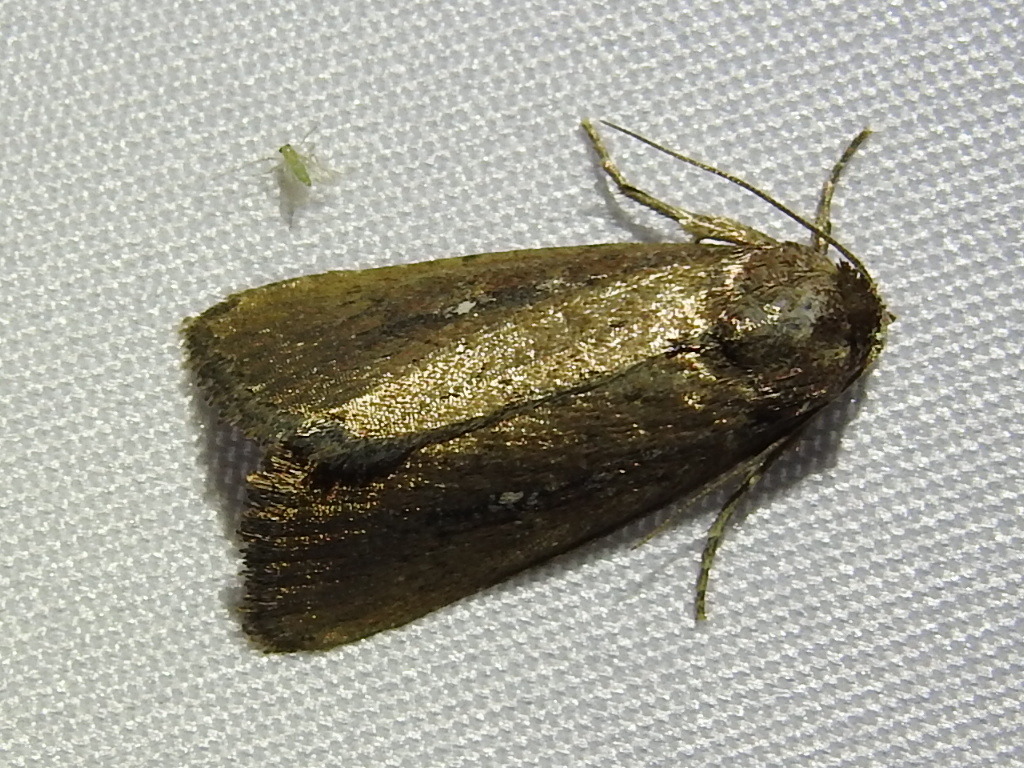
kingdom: Animalia
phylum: Arthropoda
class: Insecta
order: Lepidoptera
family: Noctuidae
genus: Condica
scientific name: Condica videns
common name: White-dotted groundling
